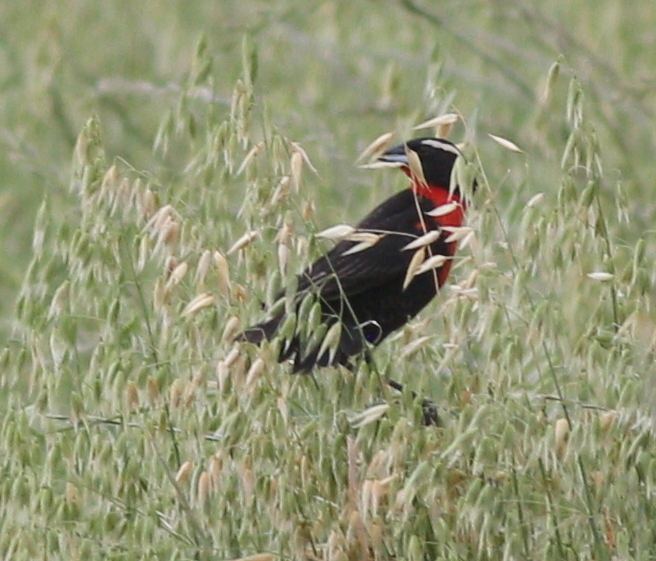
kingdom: Animalia
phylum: Chordata
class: Aves
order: Passeriformes
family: Icteridae
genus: Sturnella
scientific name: Sturnella superciliaris
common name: White-browed blackbird
